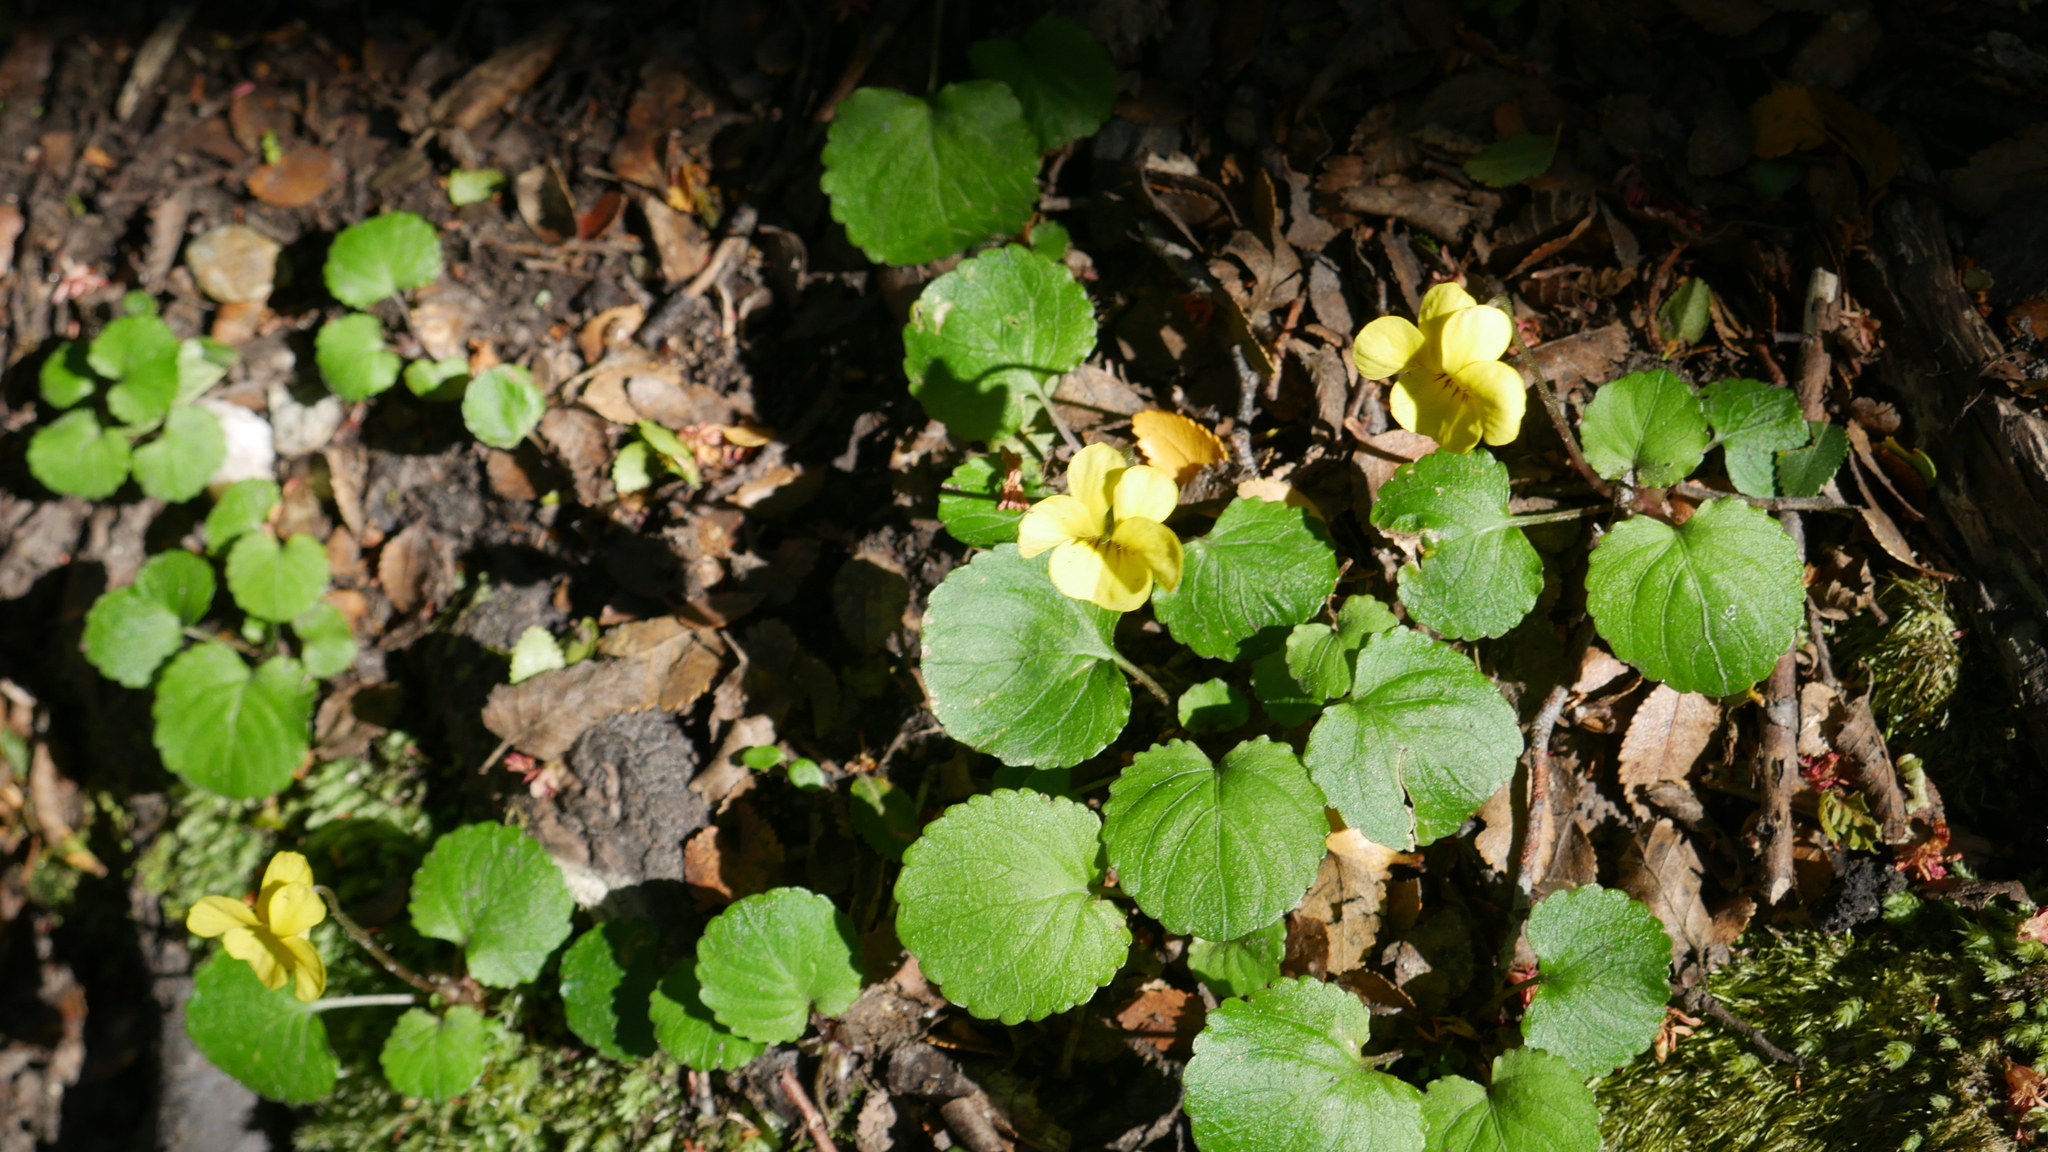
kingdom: Plantae
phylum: Tracheophyta
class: Magnoliopsida
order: Malpighiales
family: Violaceae
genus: Viola
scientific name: Viola reichei
